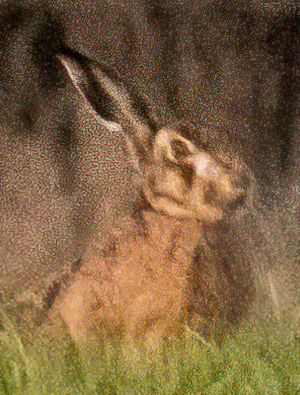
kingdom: Animalia
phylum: Chordata
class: Mammalia
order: Lagomorpha
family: Leporidae
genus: Lepus
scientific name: Lepus europaeus
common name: European hare
